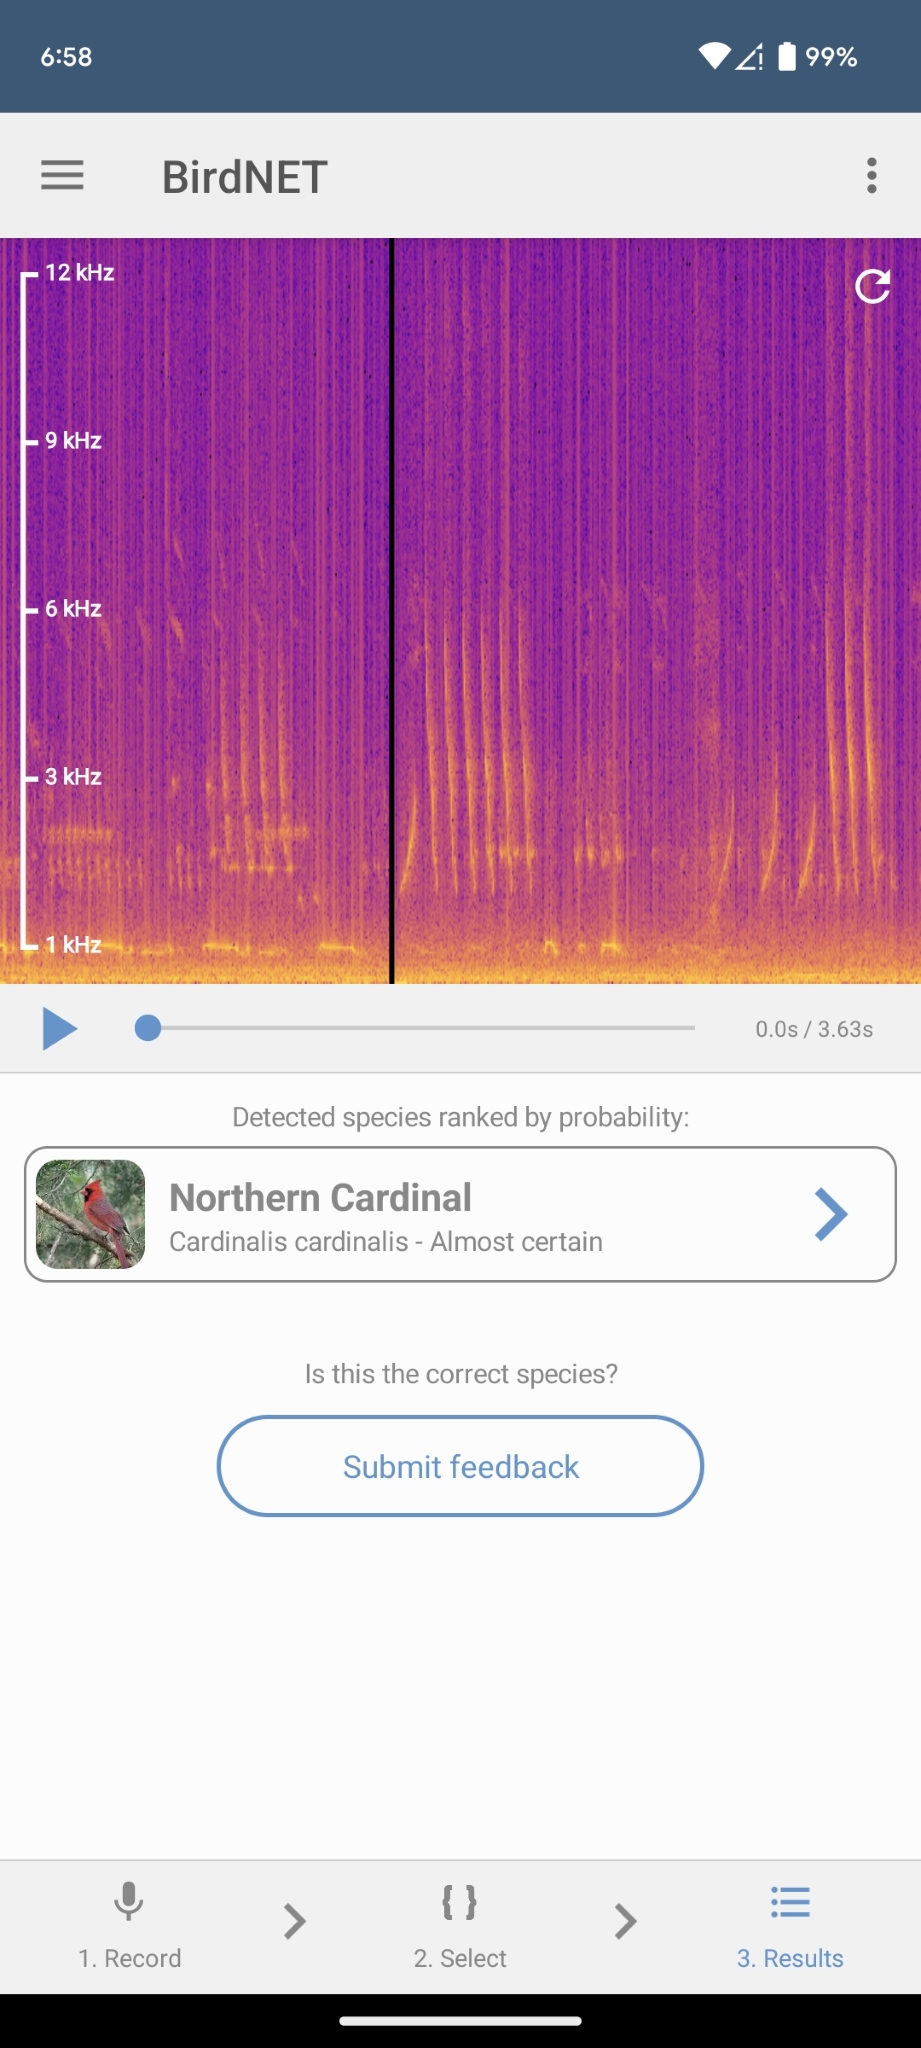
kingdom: Animalia
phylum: Chordata
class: Aves
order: Passeriformes
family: Cardinalidae
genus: Cardinalis
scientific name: Cardinalis cardinalis
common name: Northern cardinal
